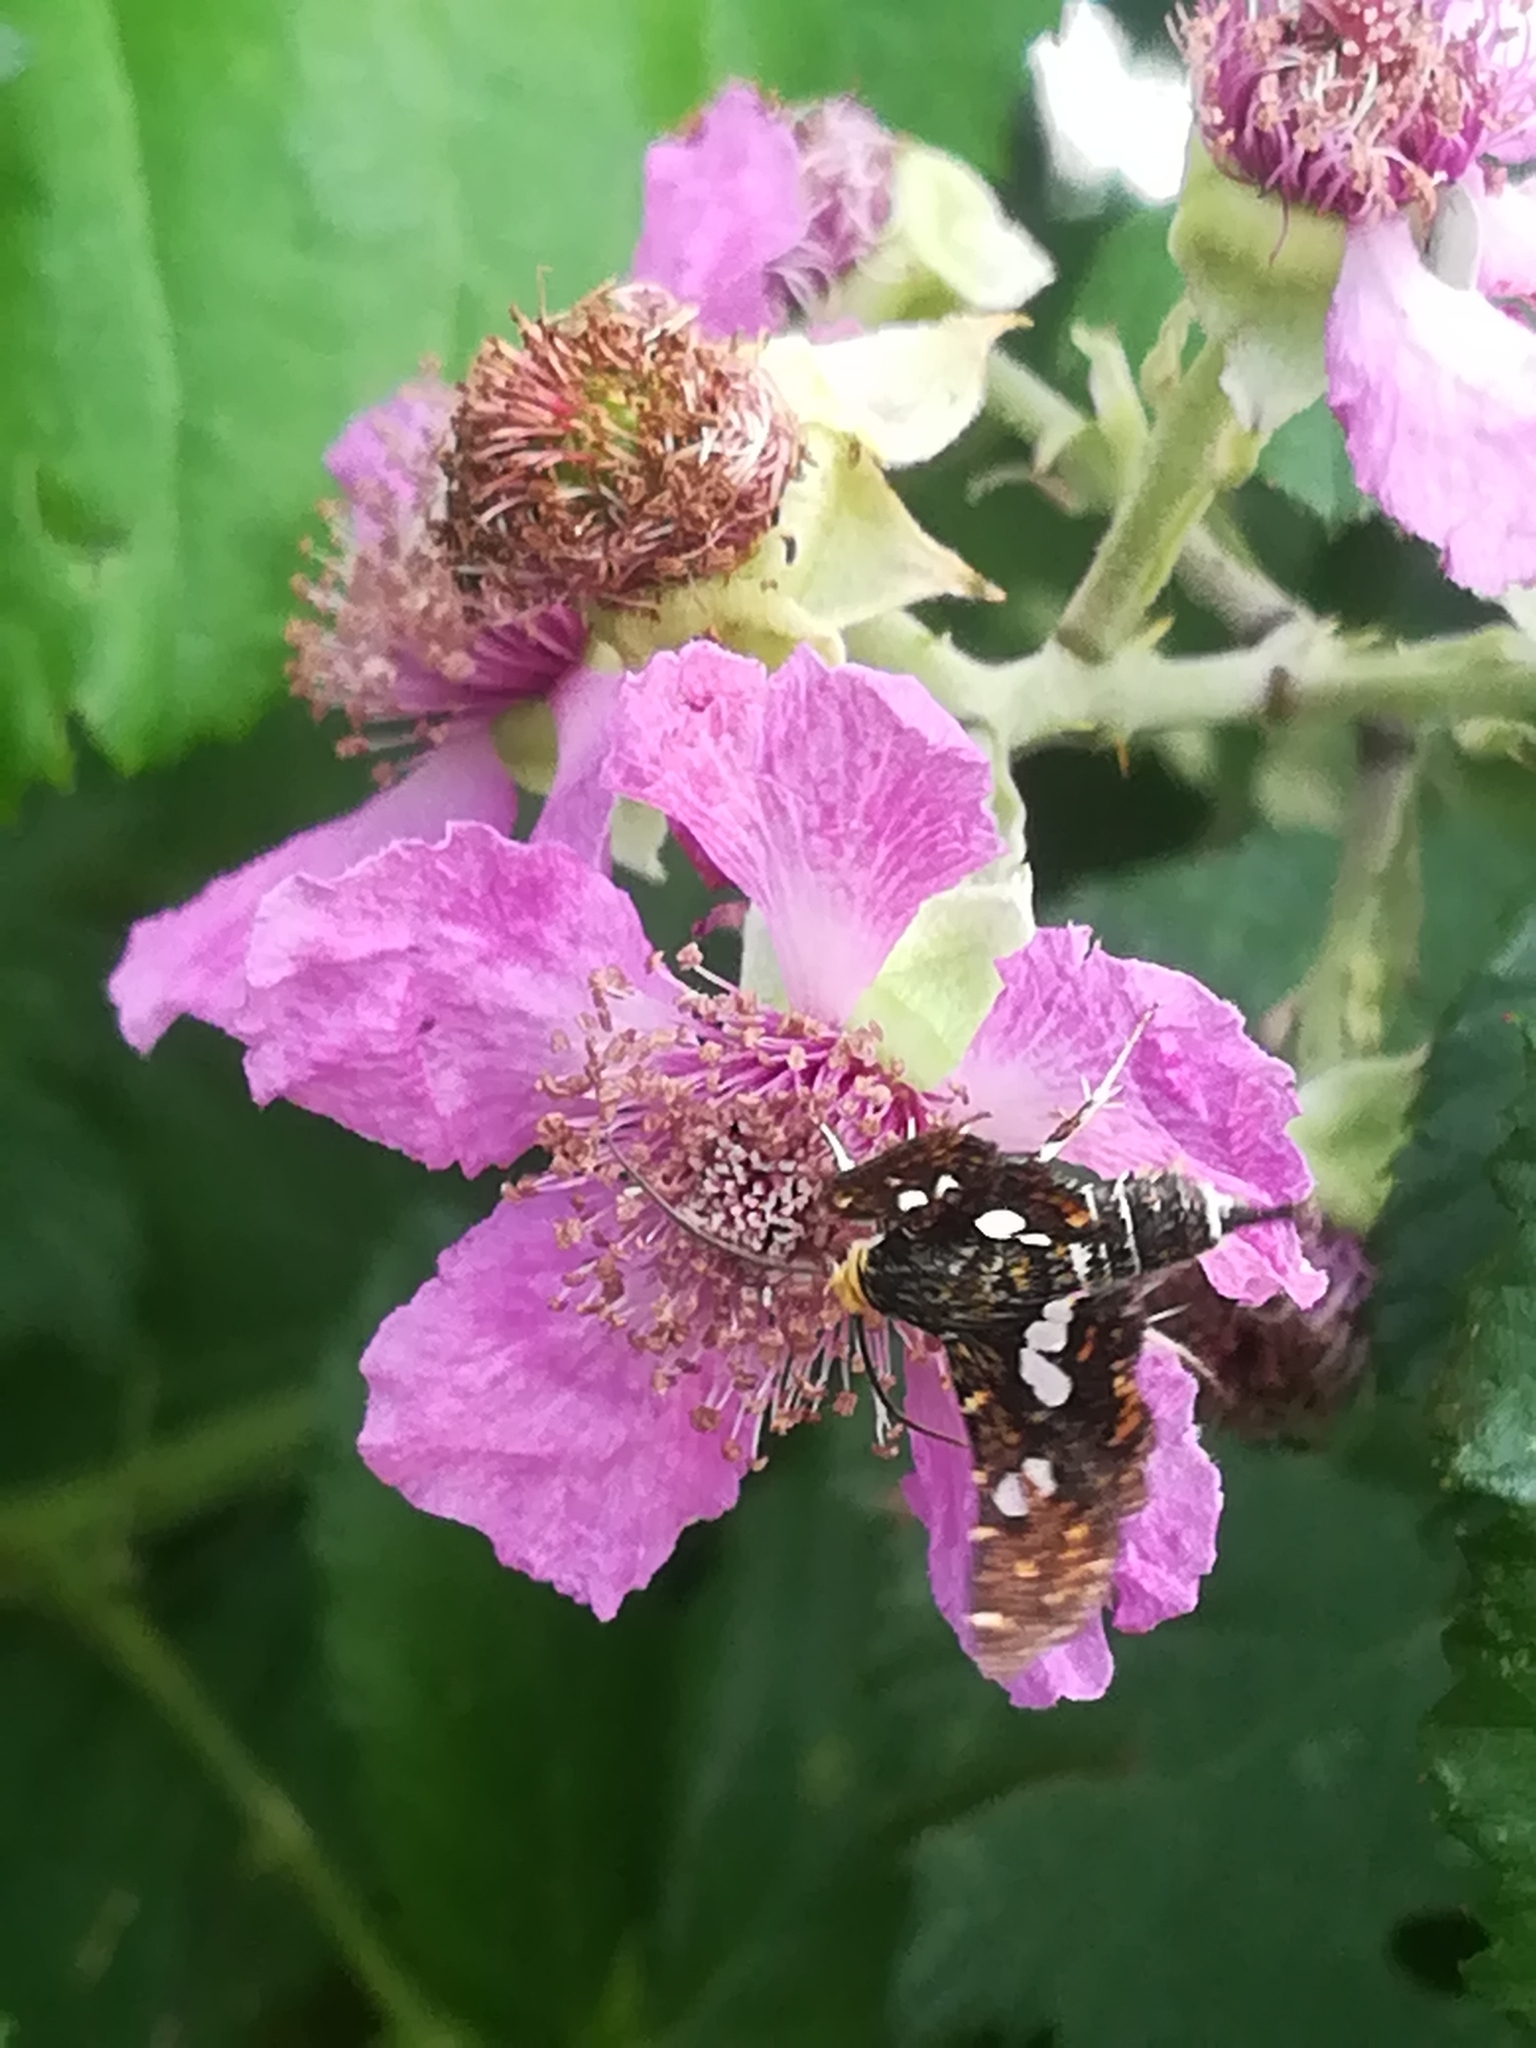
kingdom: Animalia
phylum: Arthropoda
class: Insecta
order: Lepidoptera
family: Thyrididae
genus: Thyris
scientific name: Thyris fenestrella
